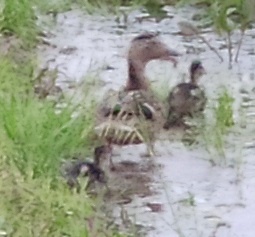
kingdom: Animalia
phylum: Chordata
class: Aves
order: Anseriformes
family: Anatidae
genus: Anas
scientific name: Anas platyrhynchos
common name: Mallard
